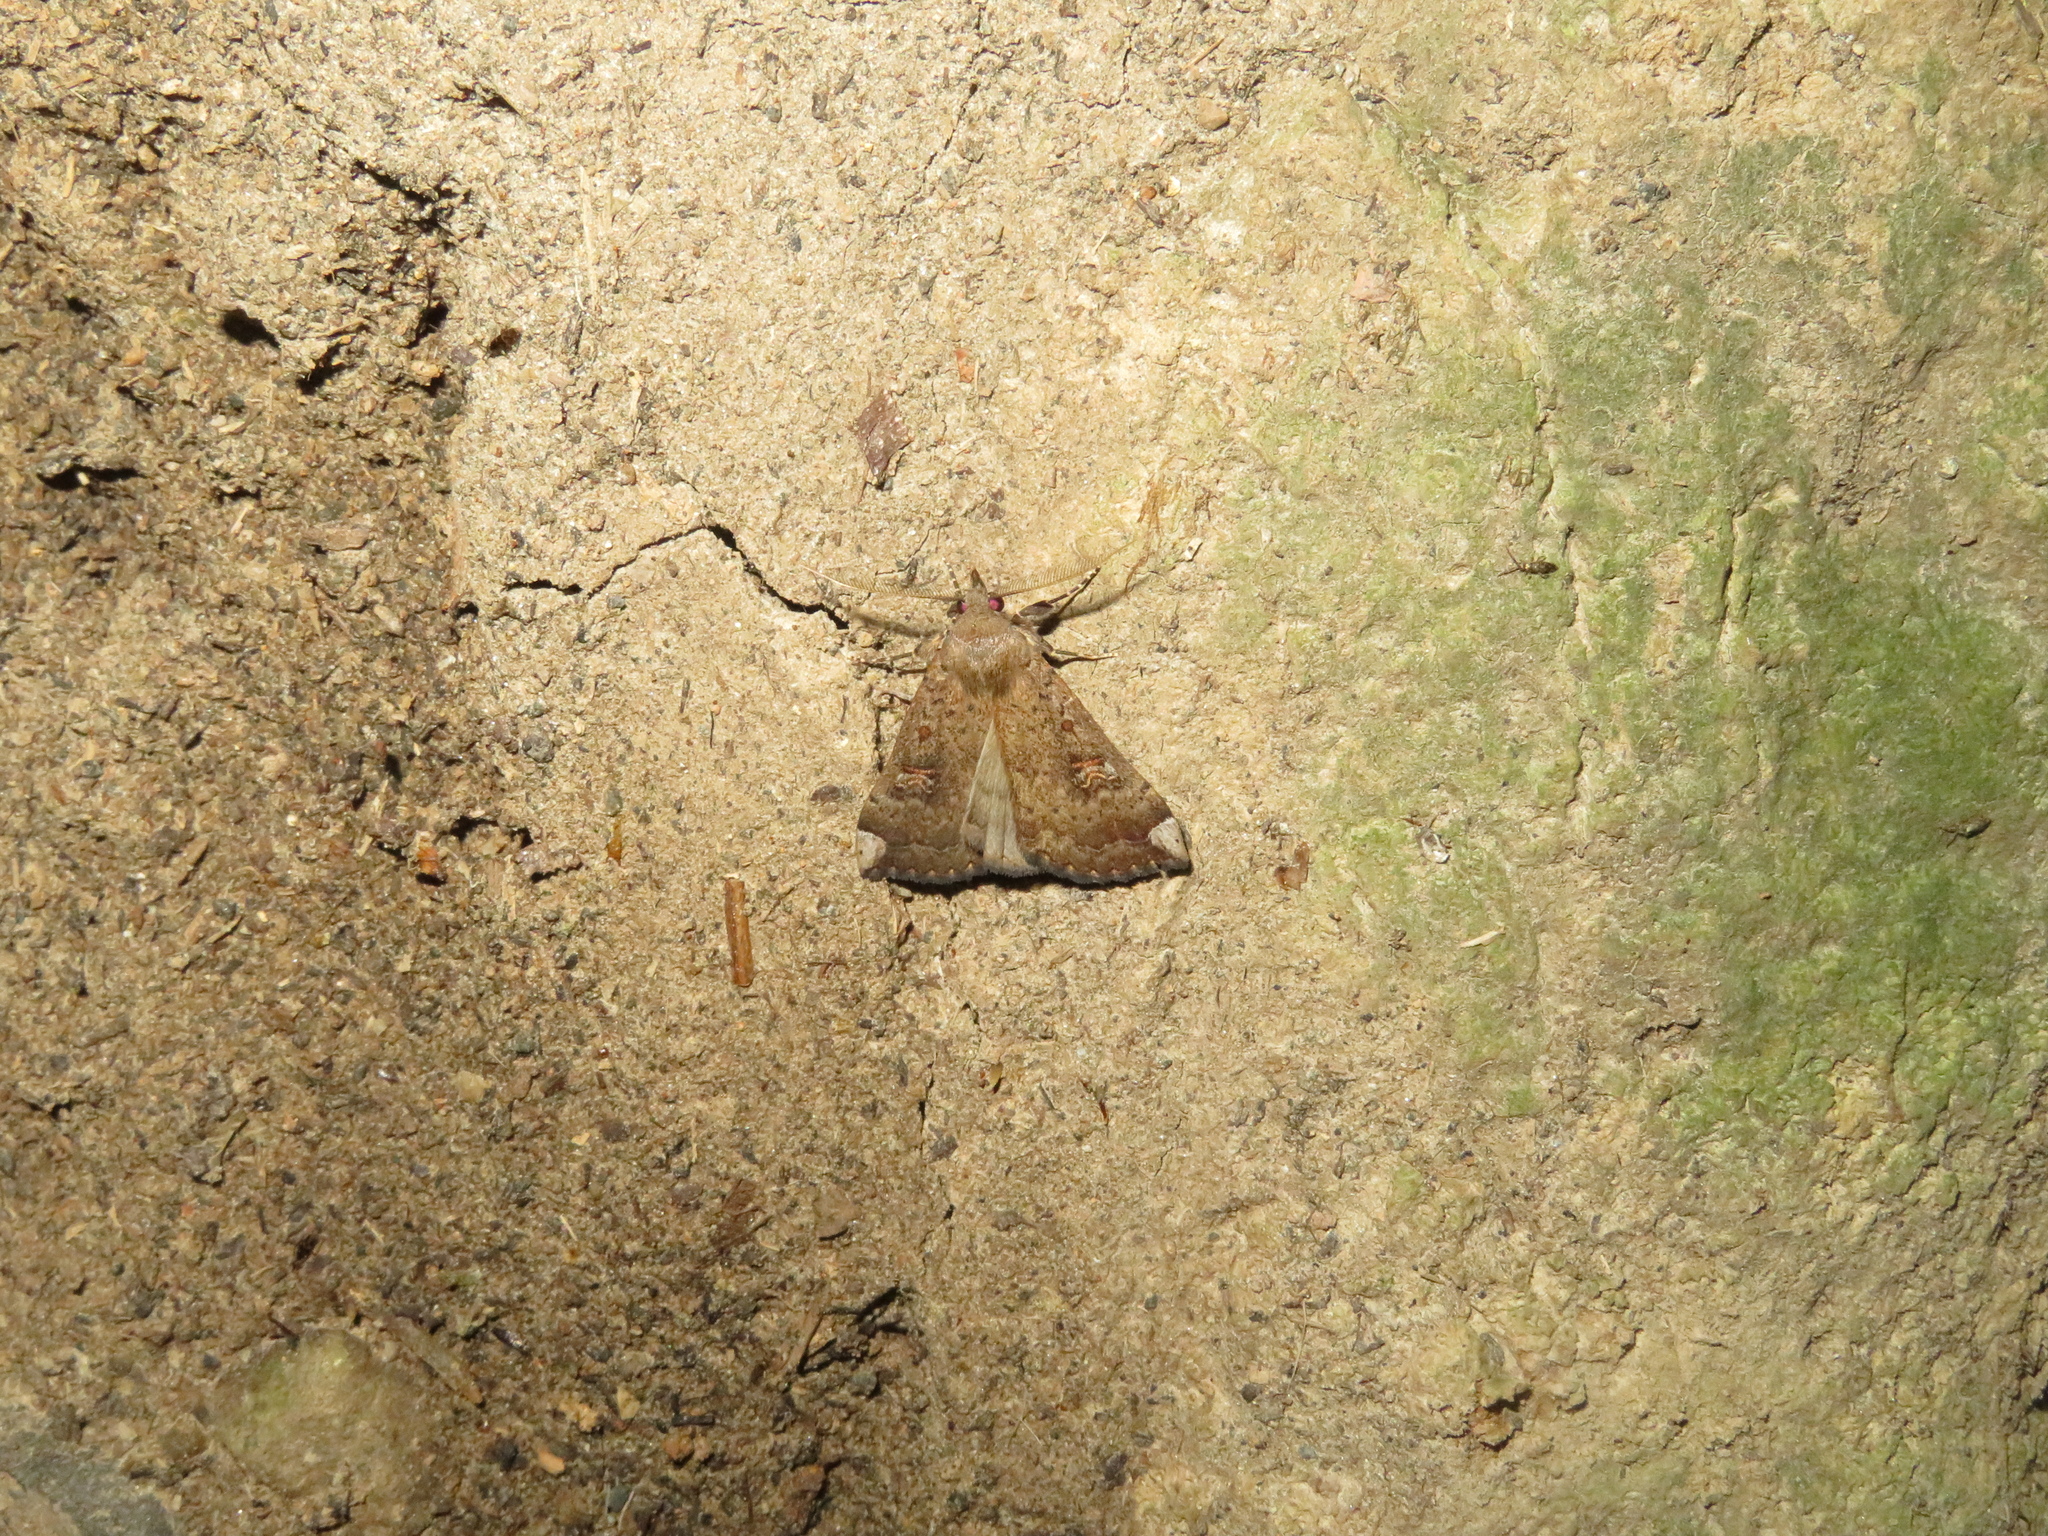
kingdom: Animalia
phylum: Arthropoda
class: Insecta
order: Lepidoptera
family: Erebidae
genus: Rhapsa
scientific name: Rhapsa scotosialis
